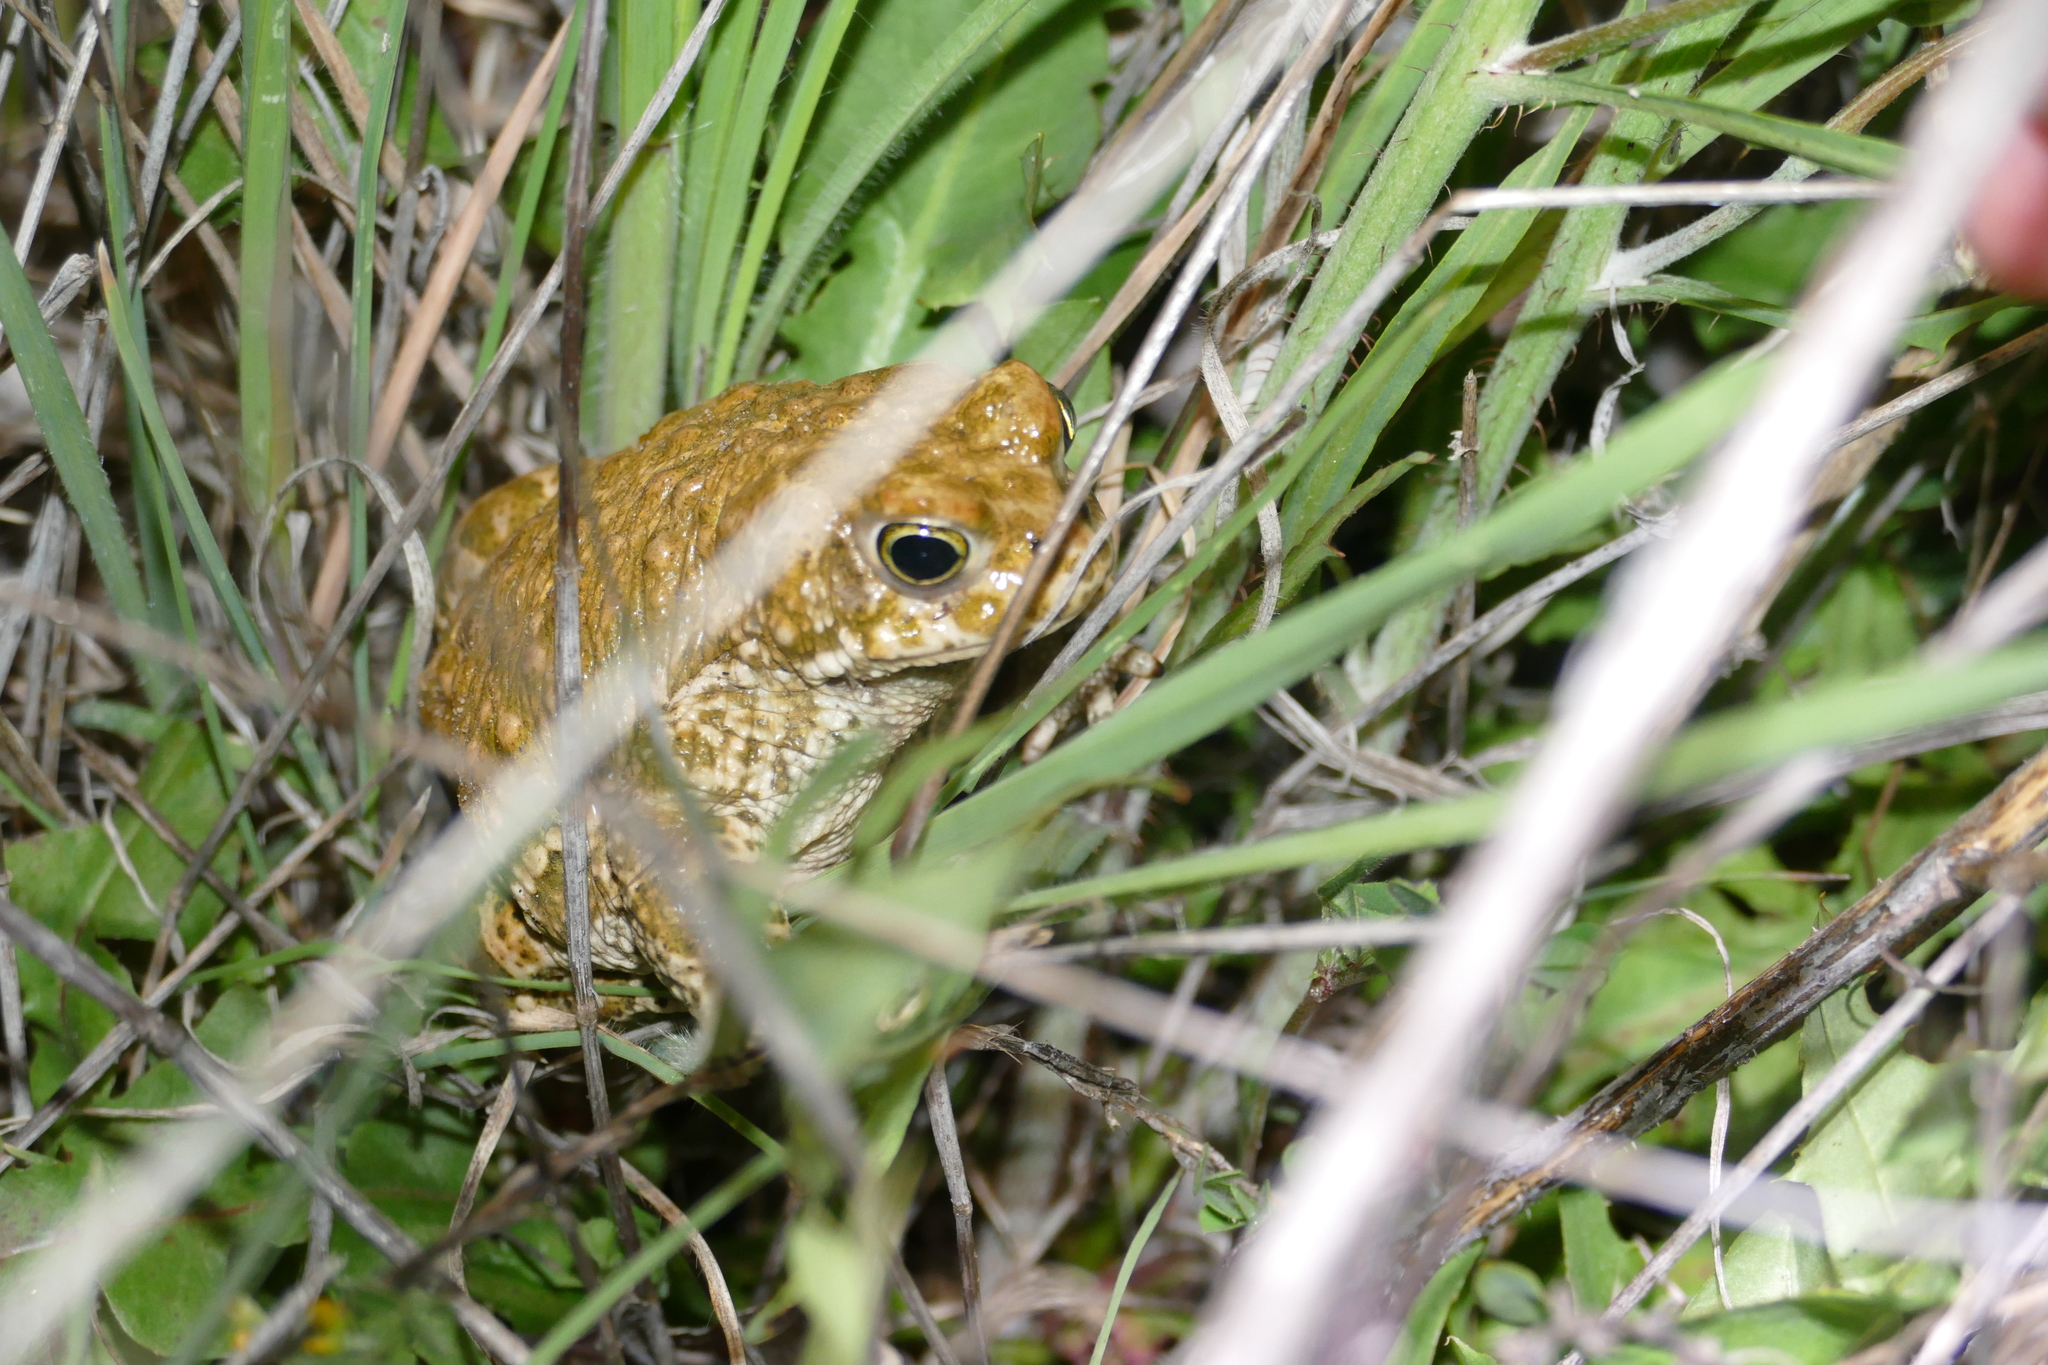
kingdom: Animalia
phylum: Chordata
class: Amphibia
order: Anura
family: Bufonidae
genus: Epidalea
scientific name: Epidalea calamita
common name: Natterjack toad
